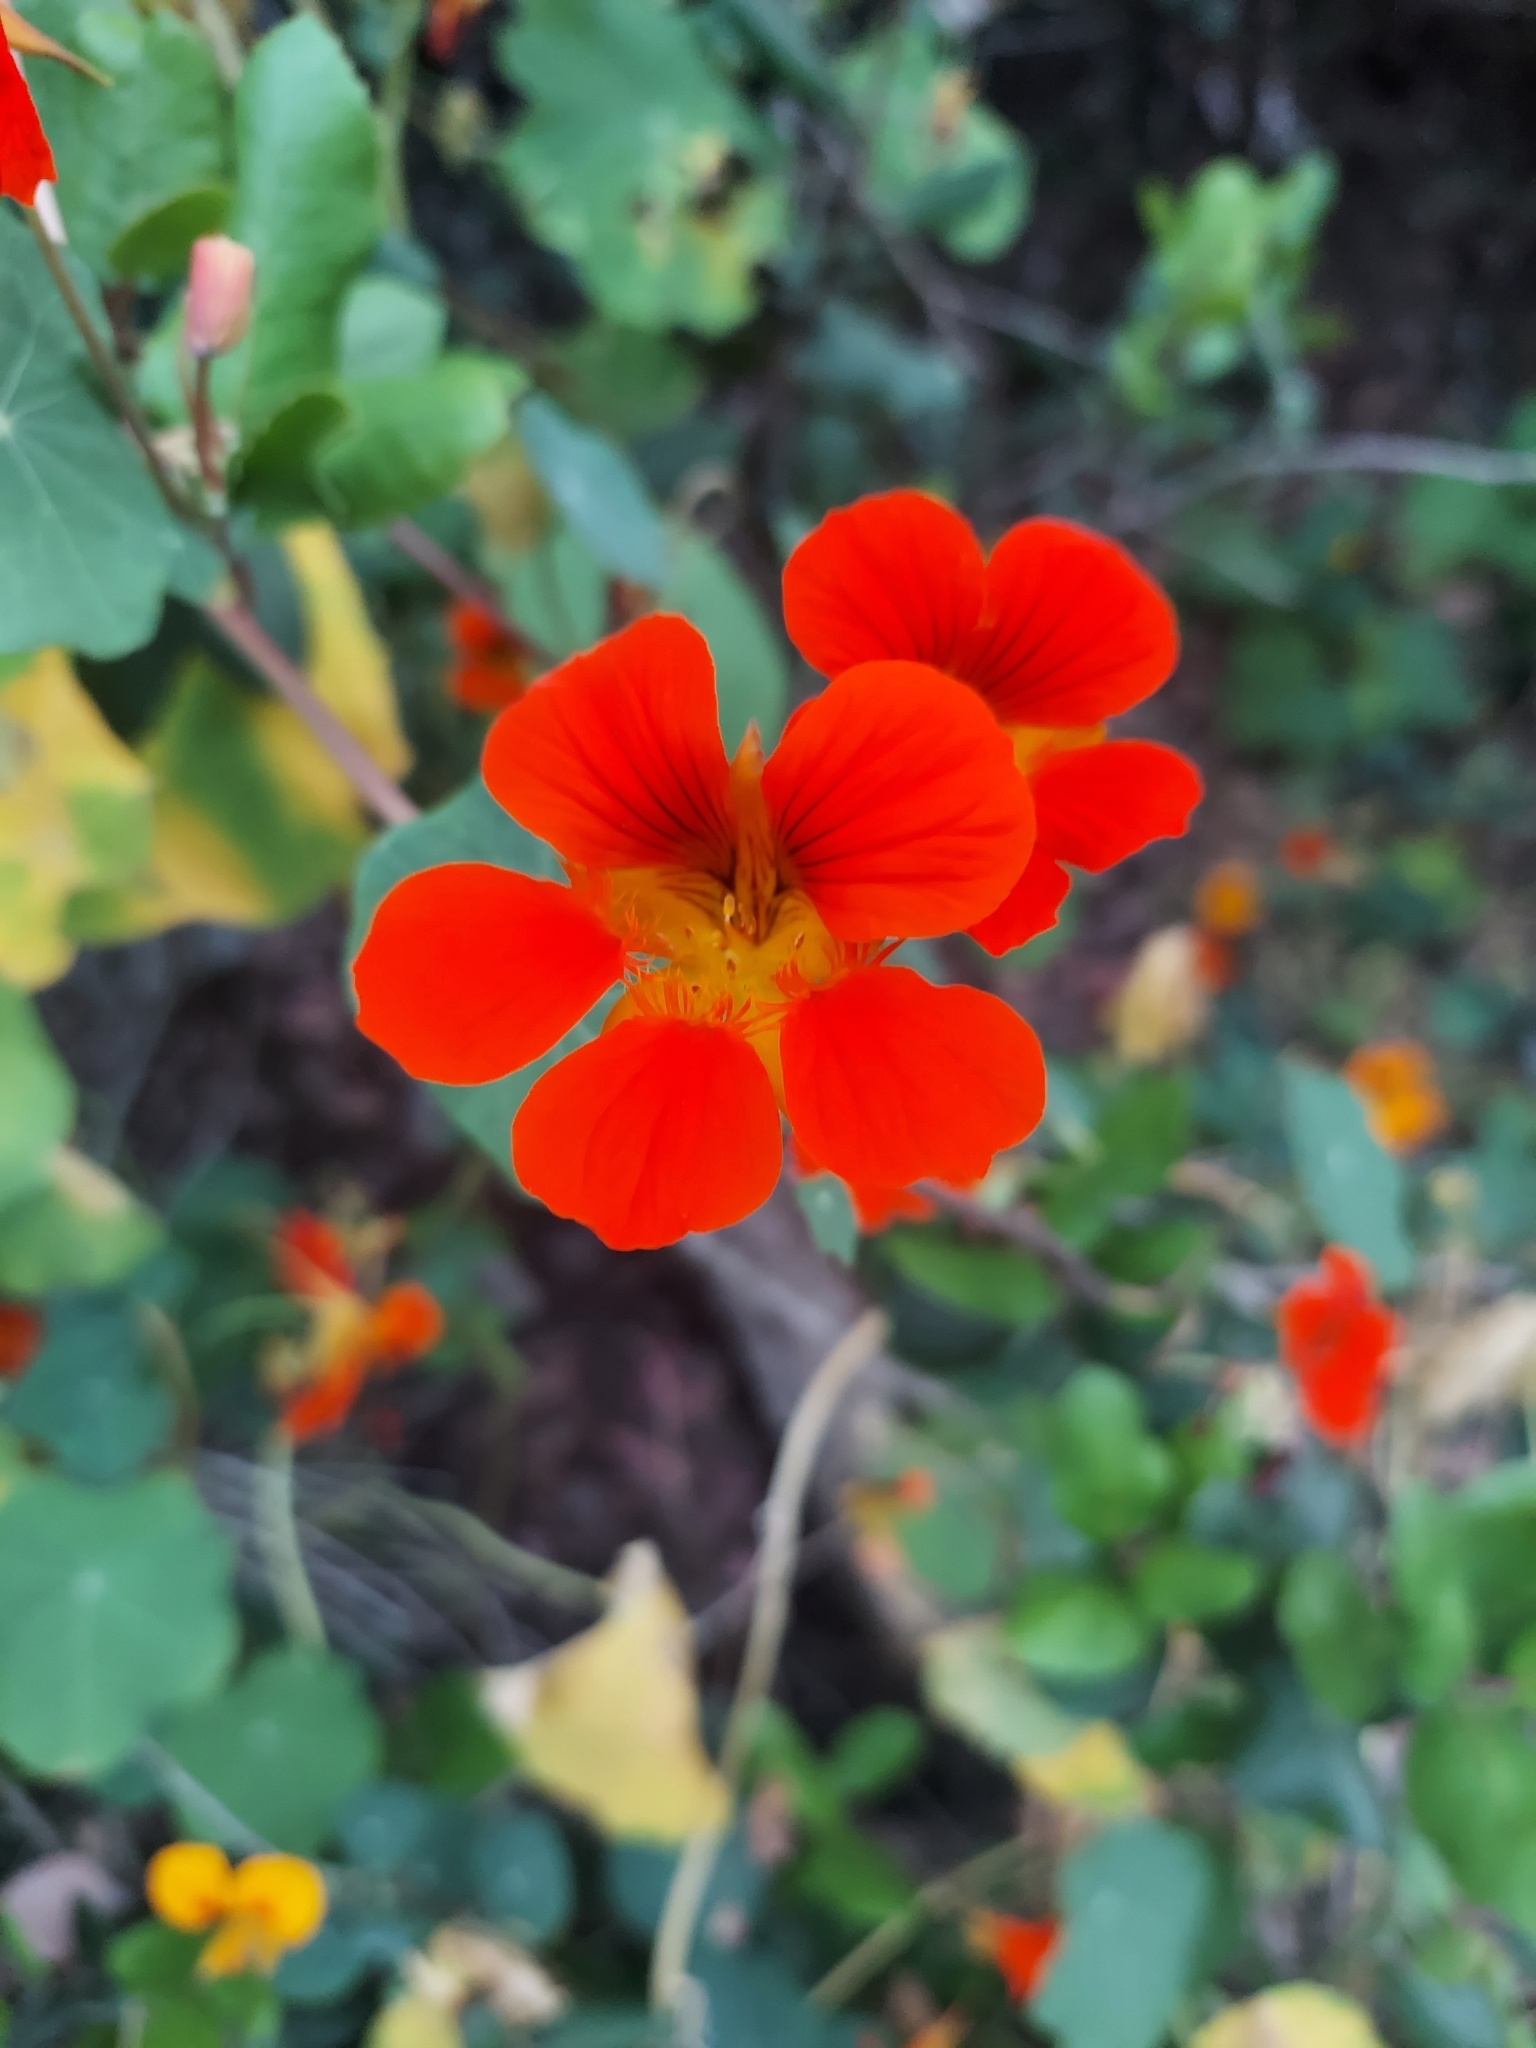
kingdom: Plantae
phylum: Tracheophyta
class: Magnoliopsida
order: Brassicales
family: Tropaeolaceae
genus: Tropaeolum
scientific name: Tropaeolum majus
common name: Nasturtium
